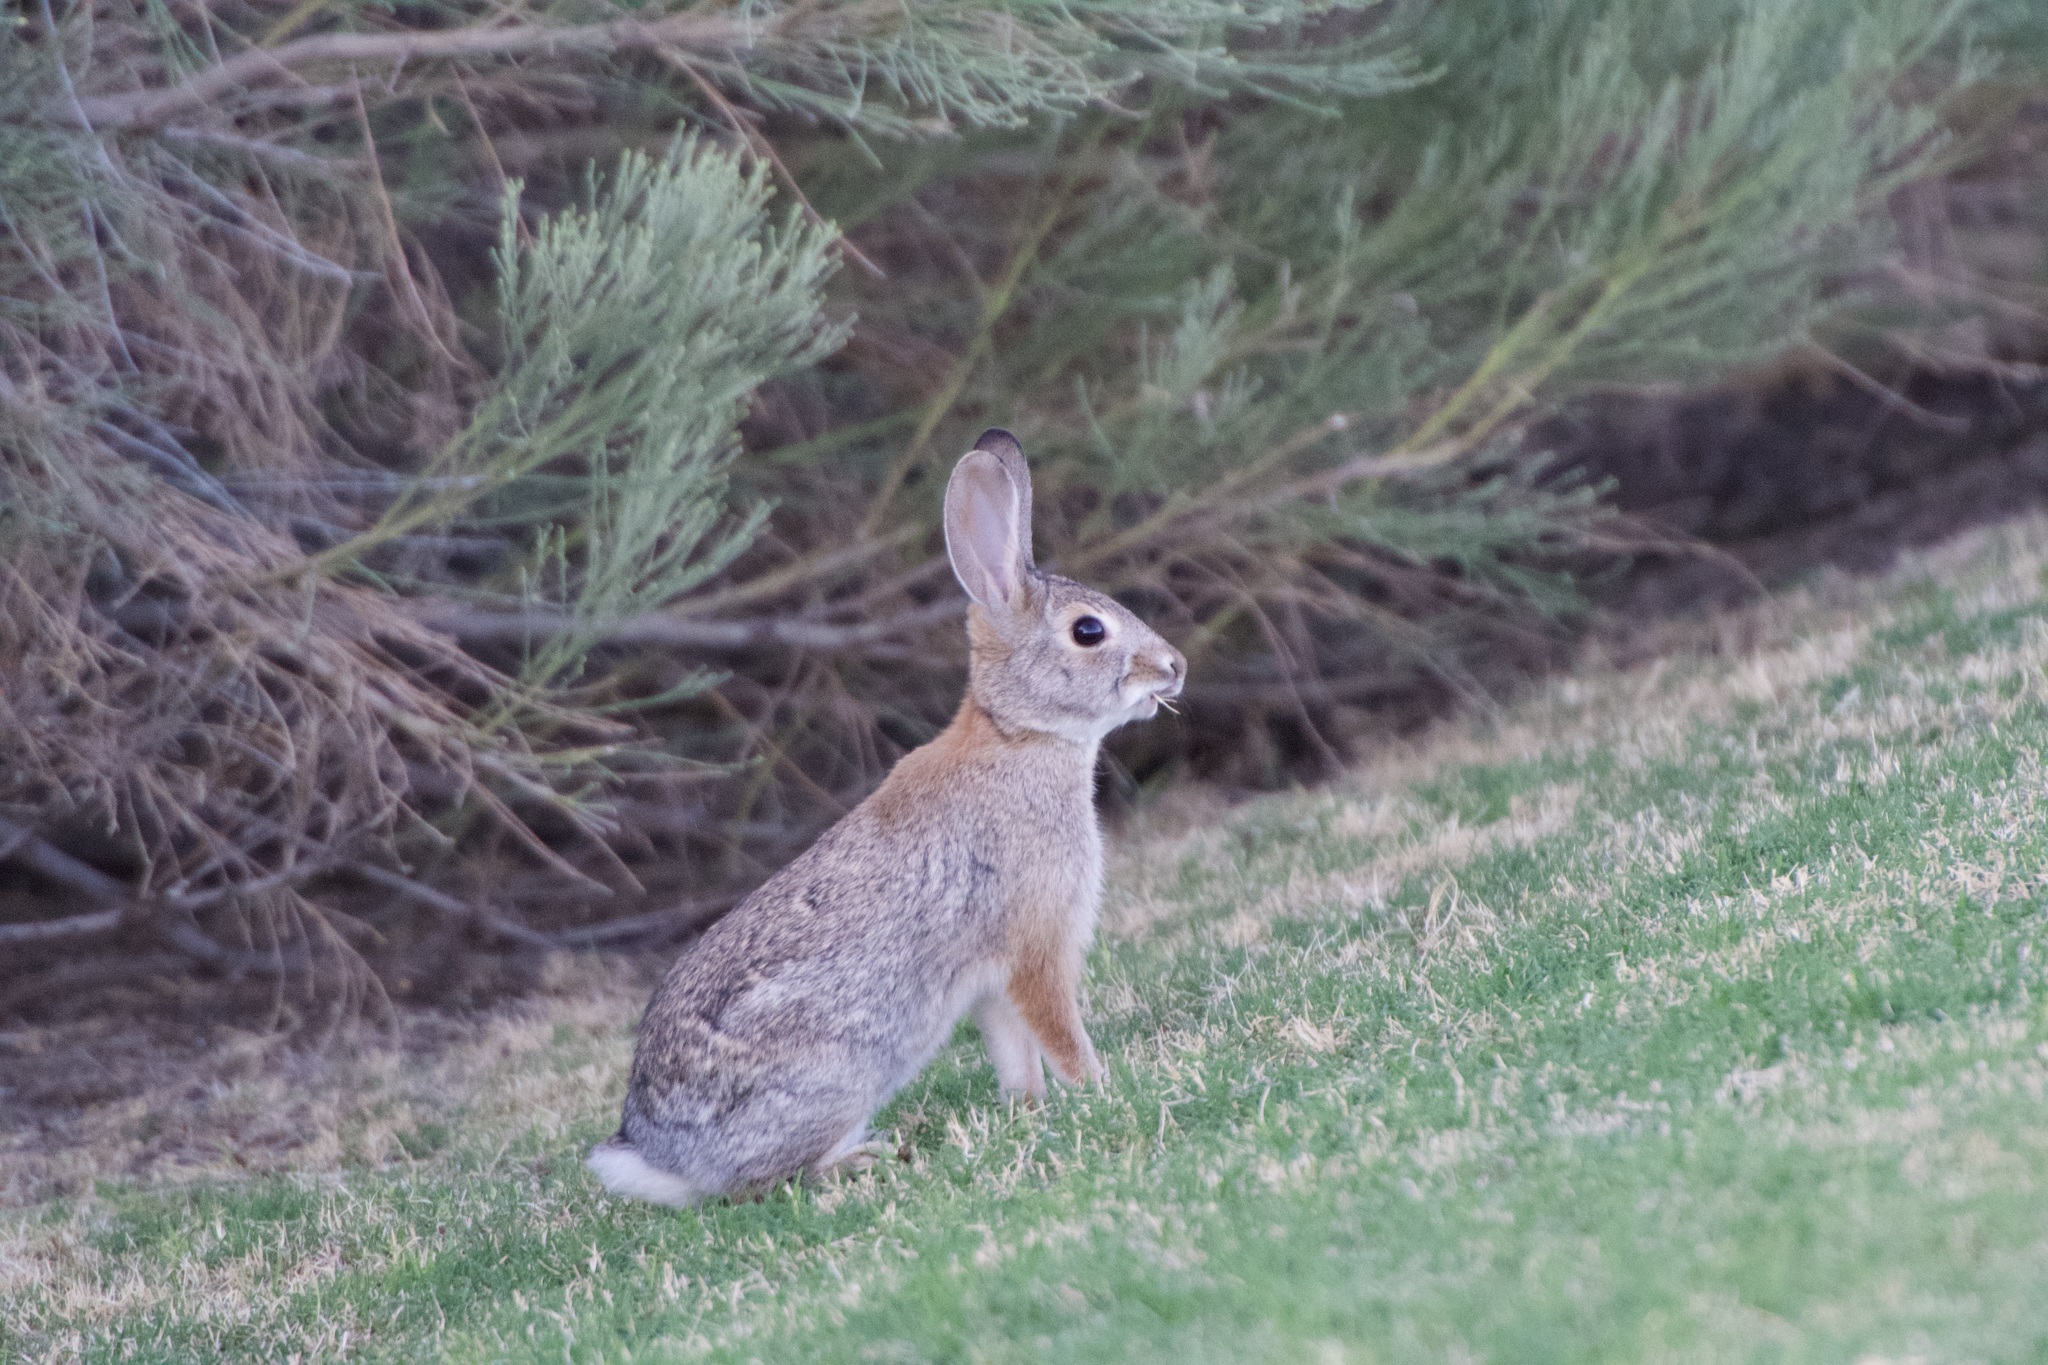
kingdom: Animalia
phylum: Chordata
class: Mammalia
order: Lagomorpha
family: Leporidae
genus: Sylvilagus
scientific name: Sylvilagus audubonii
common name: Desert cottontail
